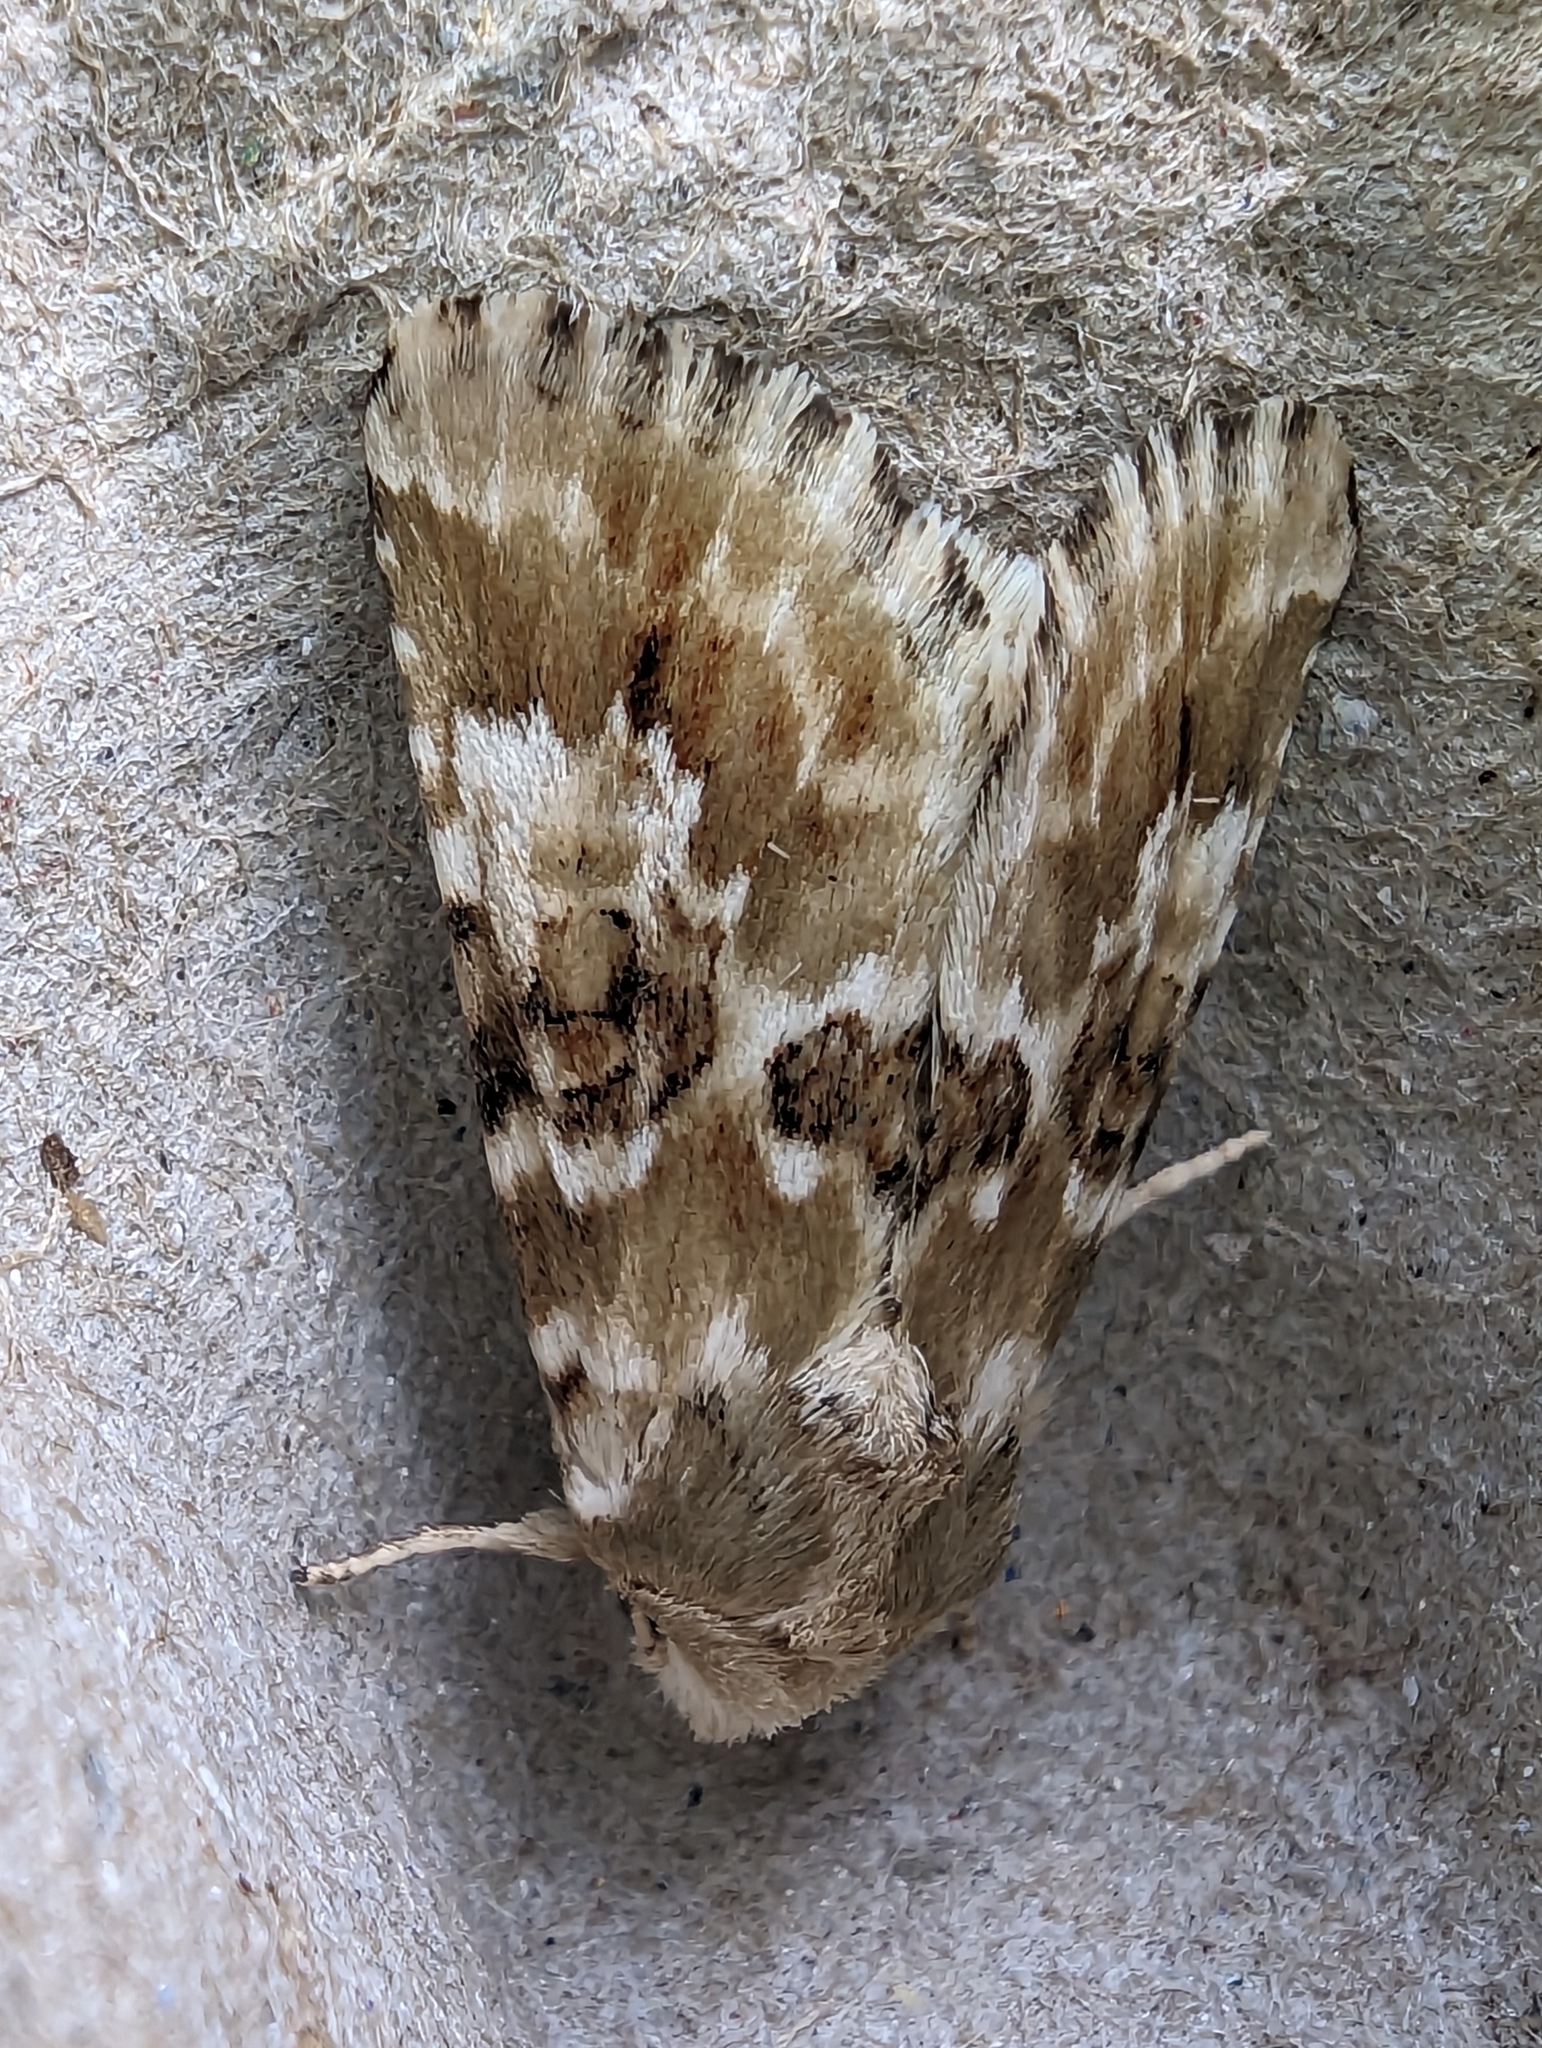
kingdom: Animalia
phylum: Arthropoda
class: Insecta
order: Lepidoptera
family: Noctuidae
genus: Eremobia
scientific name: Eremobia ochroleuca
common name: Dusky sallow
